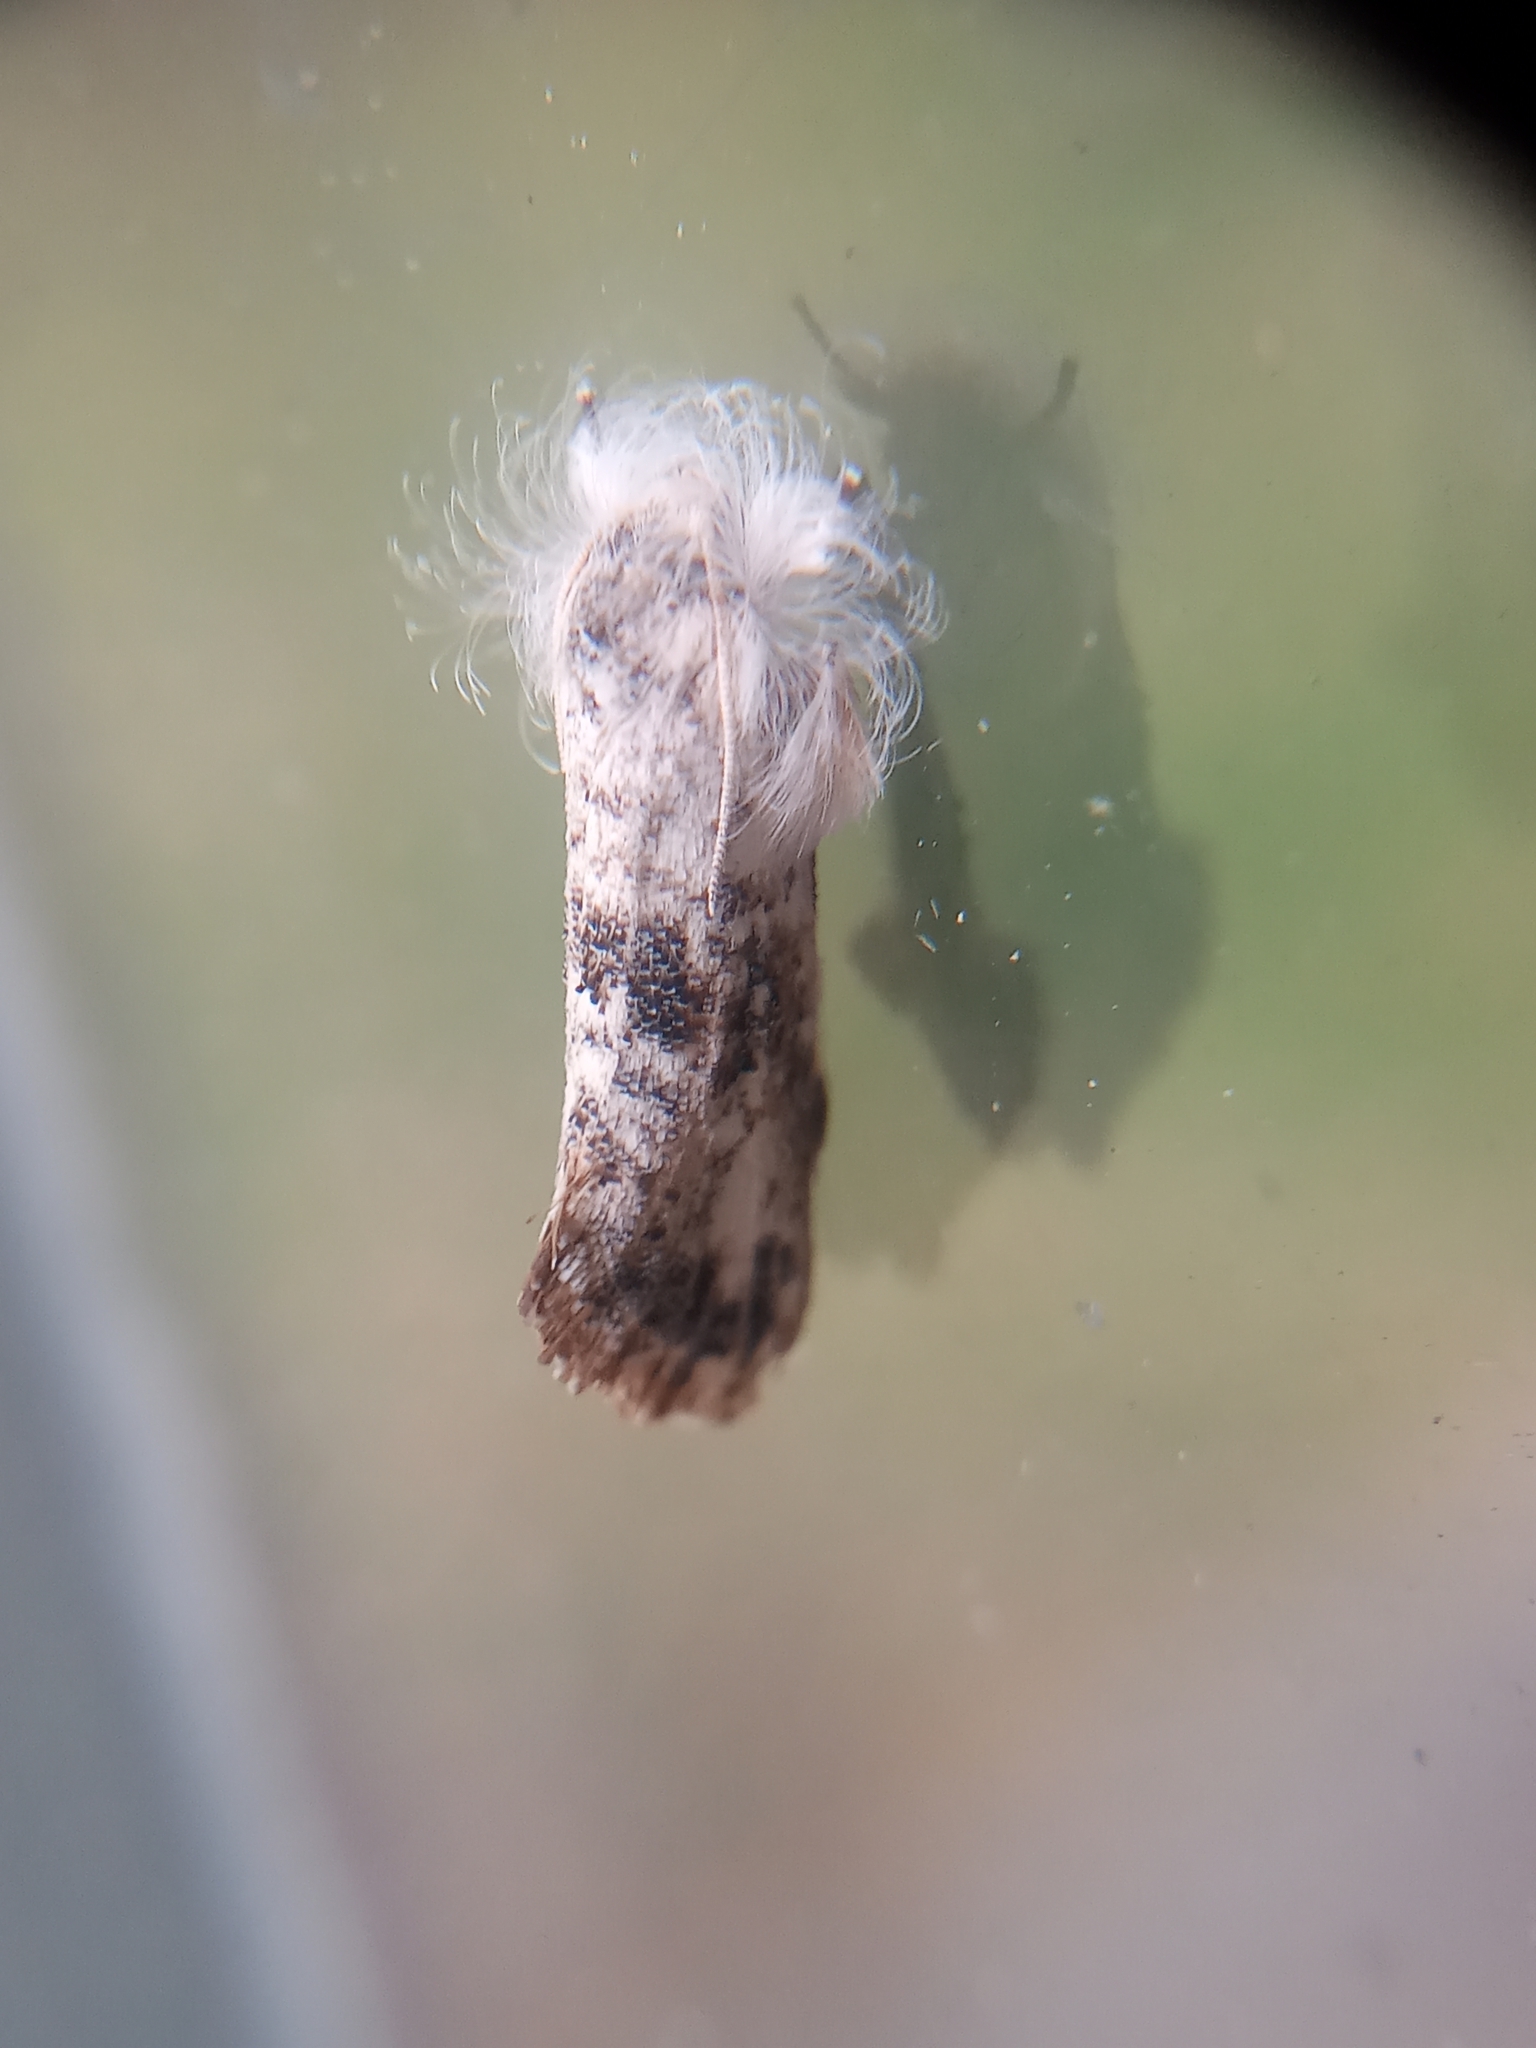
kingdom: Animalia
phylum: Arthropoda
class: Insecta
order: Lepidoptera
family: Tineidae
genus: Acrolophus
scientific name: Acrolophus mycetophagus
